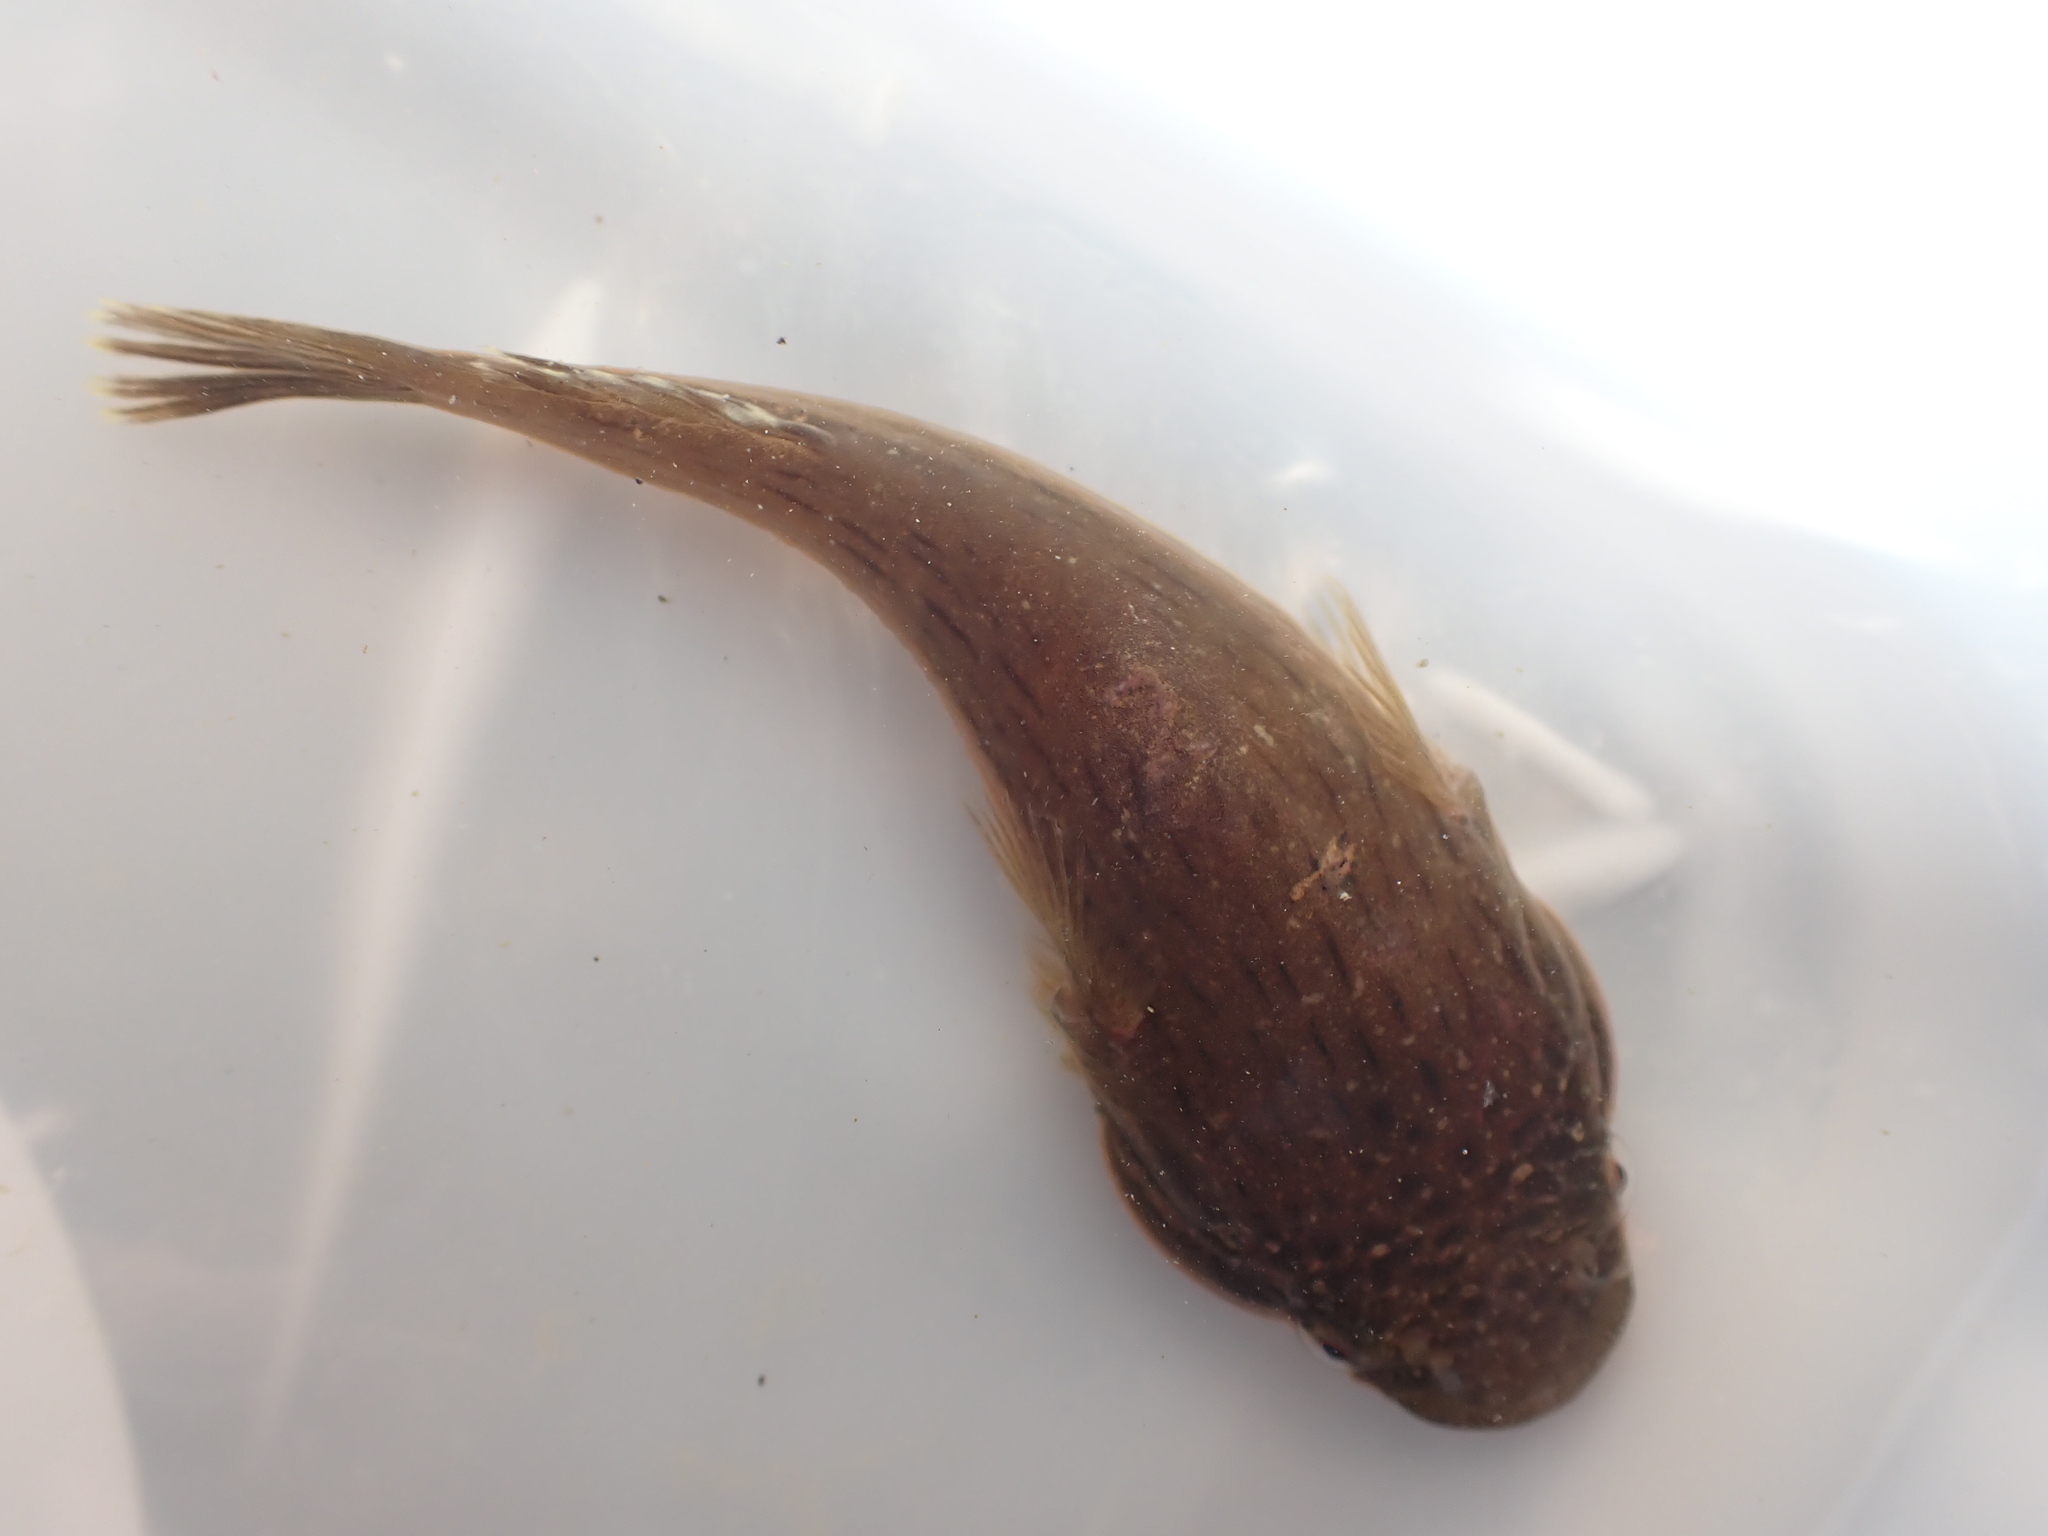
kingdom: Animalia
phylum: Chordata
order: Gobiesociformes
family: Gobiesocidae
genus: Trachelochismus
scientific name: Trachelochismus pinnulatus
